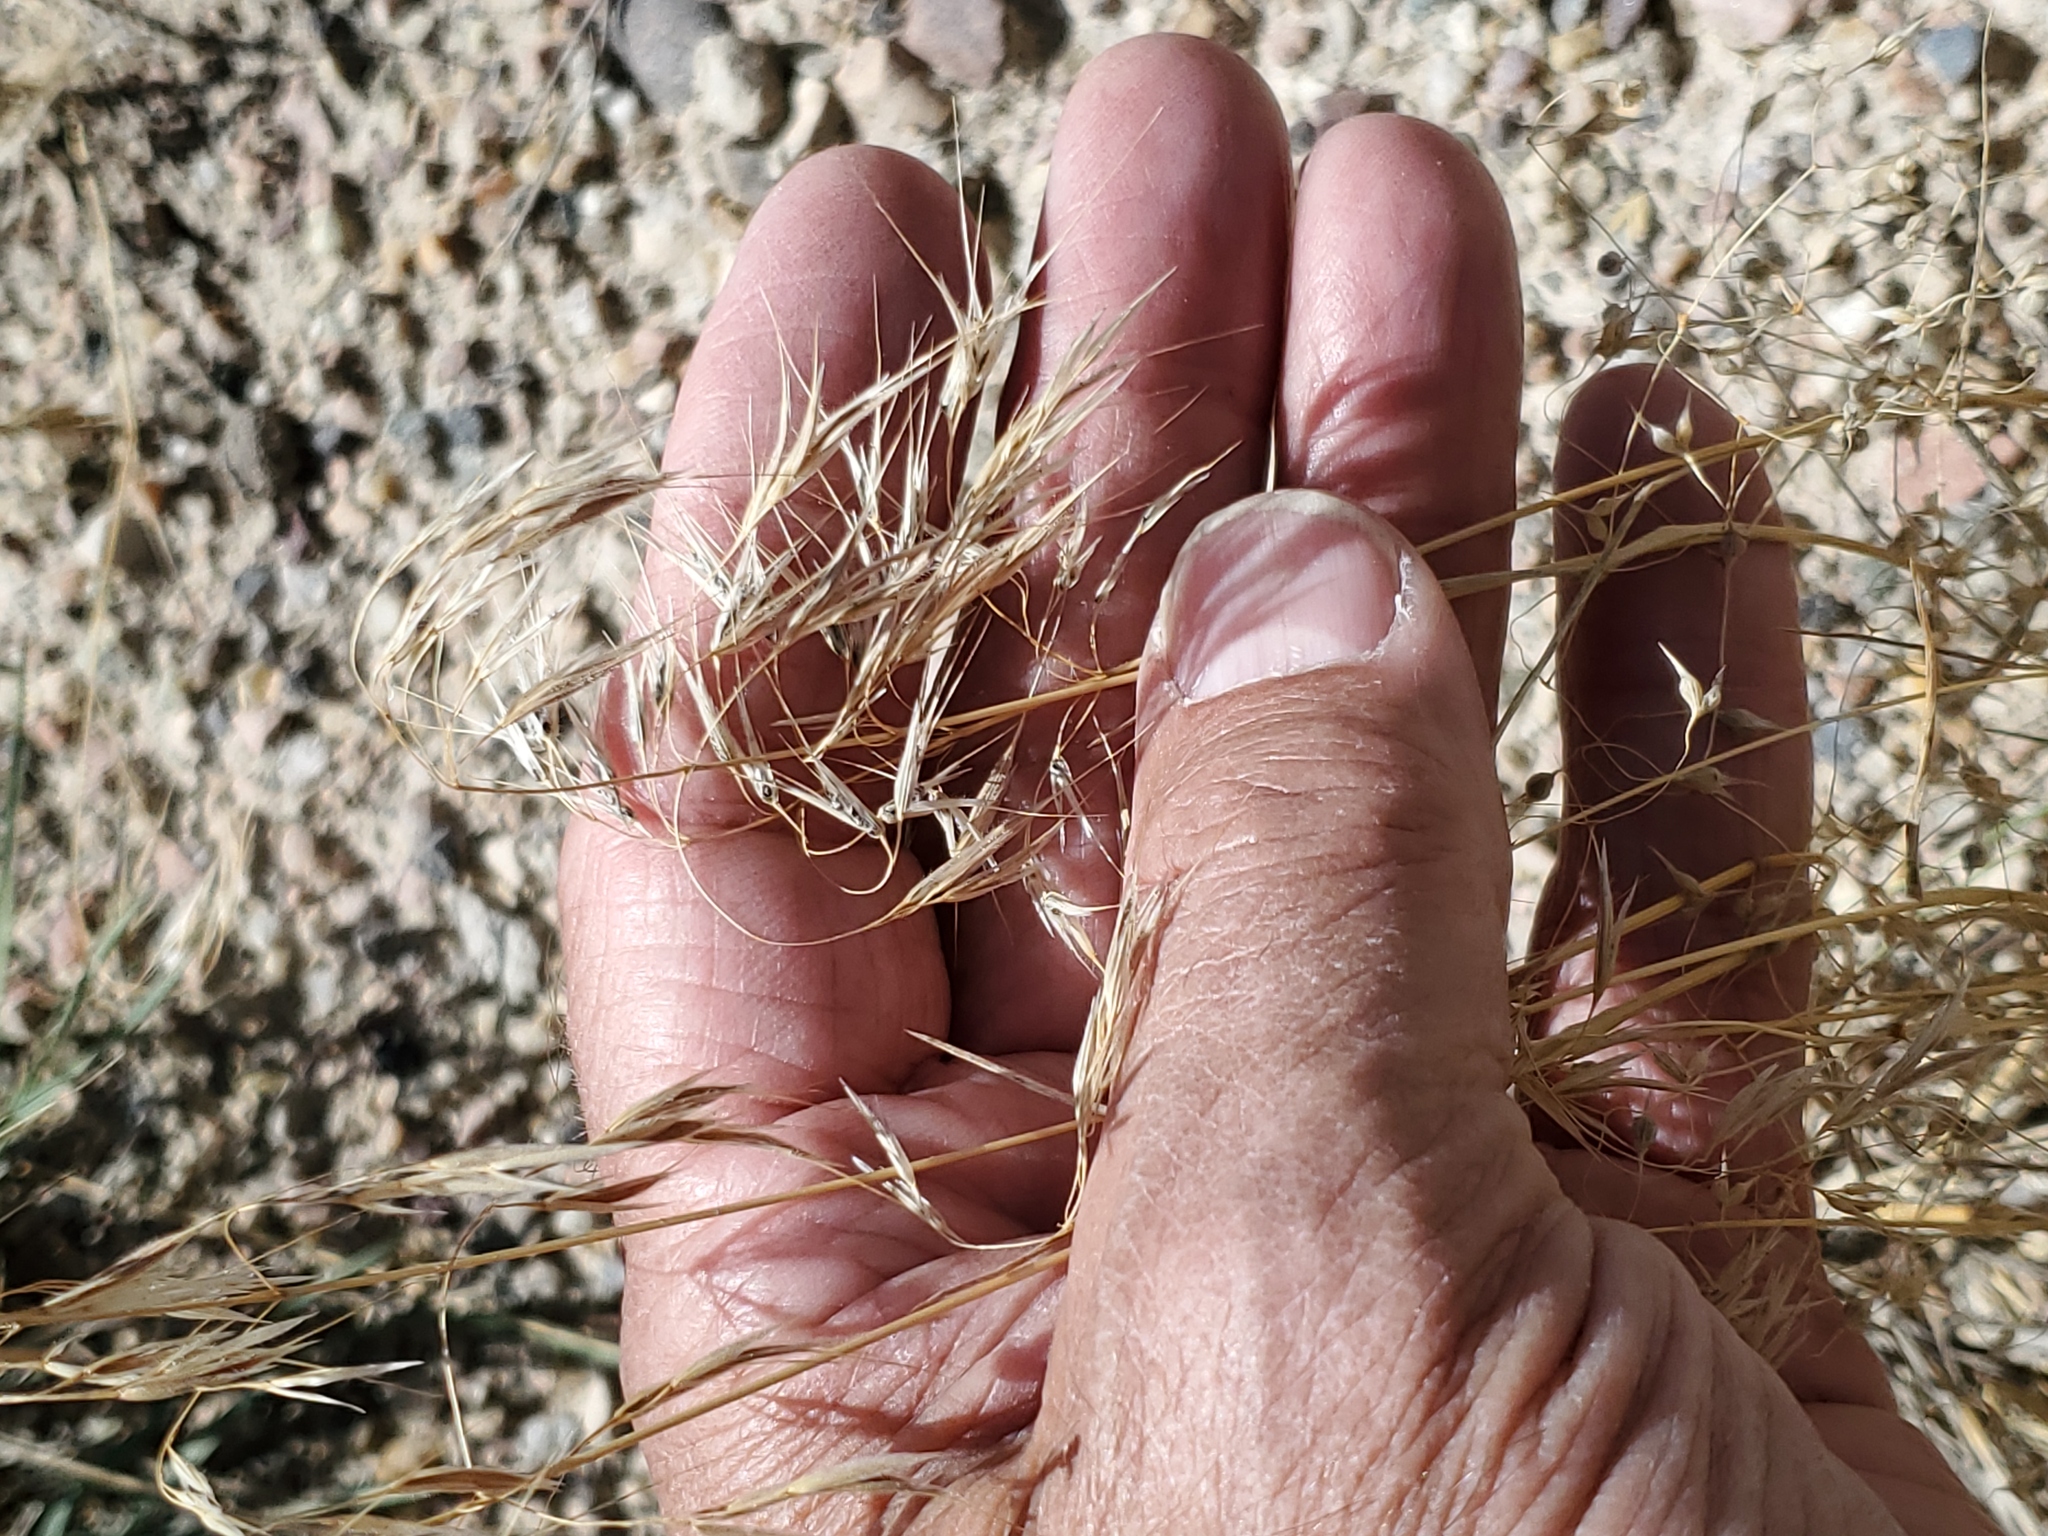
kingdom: Plantae
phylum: Tracheophyta
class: Liliopsida
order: Poales
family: Poaceae
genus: Bromus
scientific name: Bromus tectorum
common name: Cheatgrass
